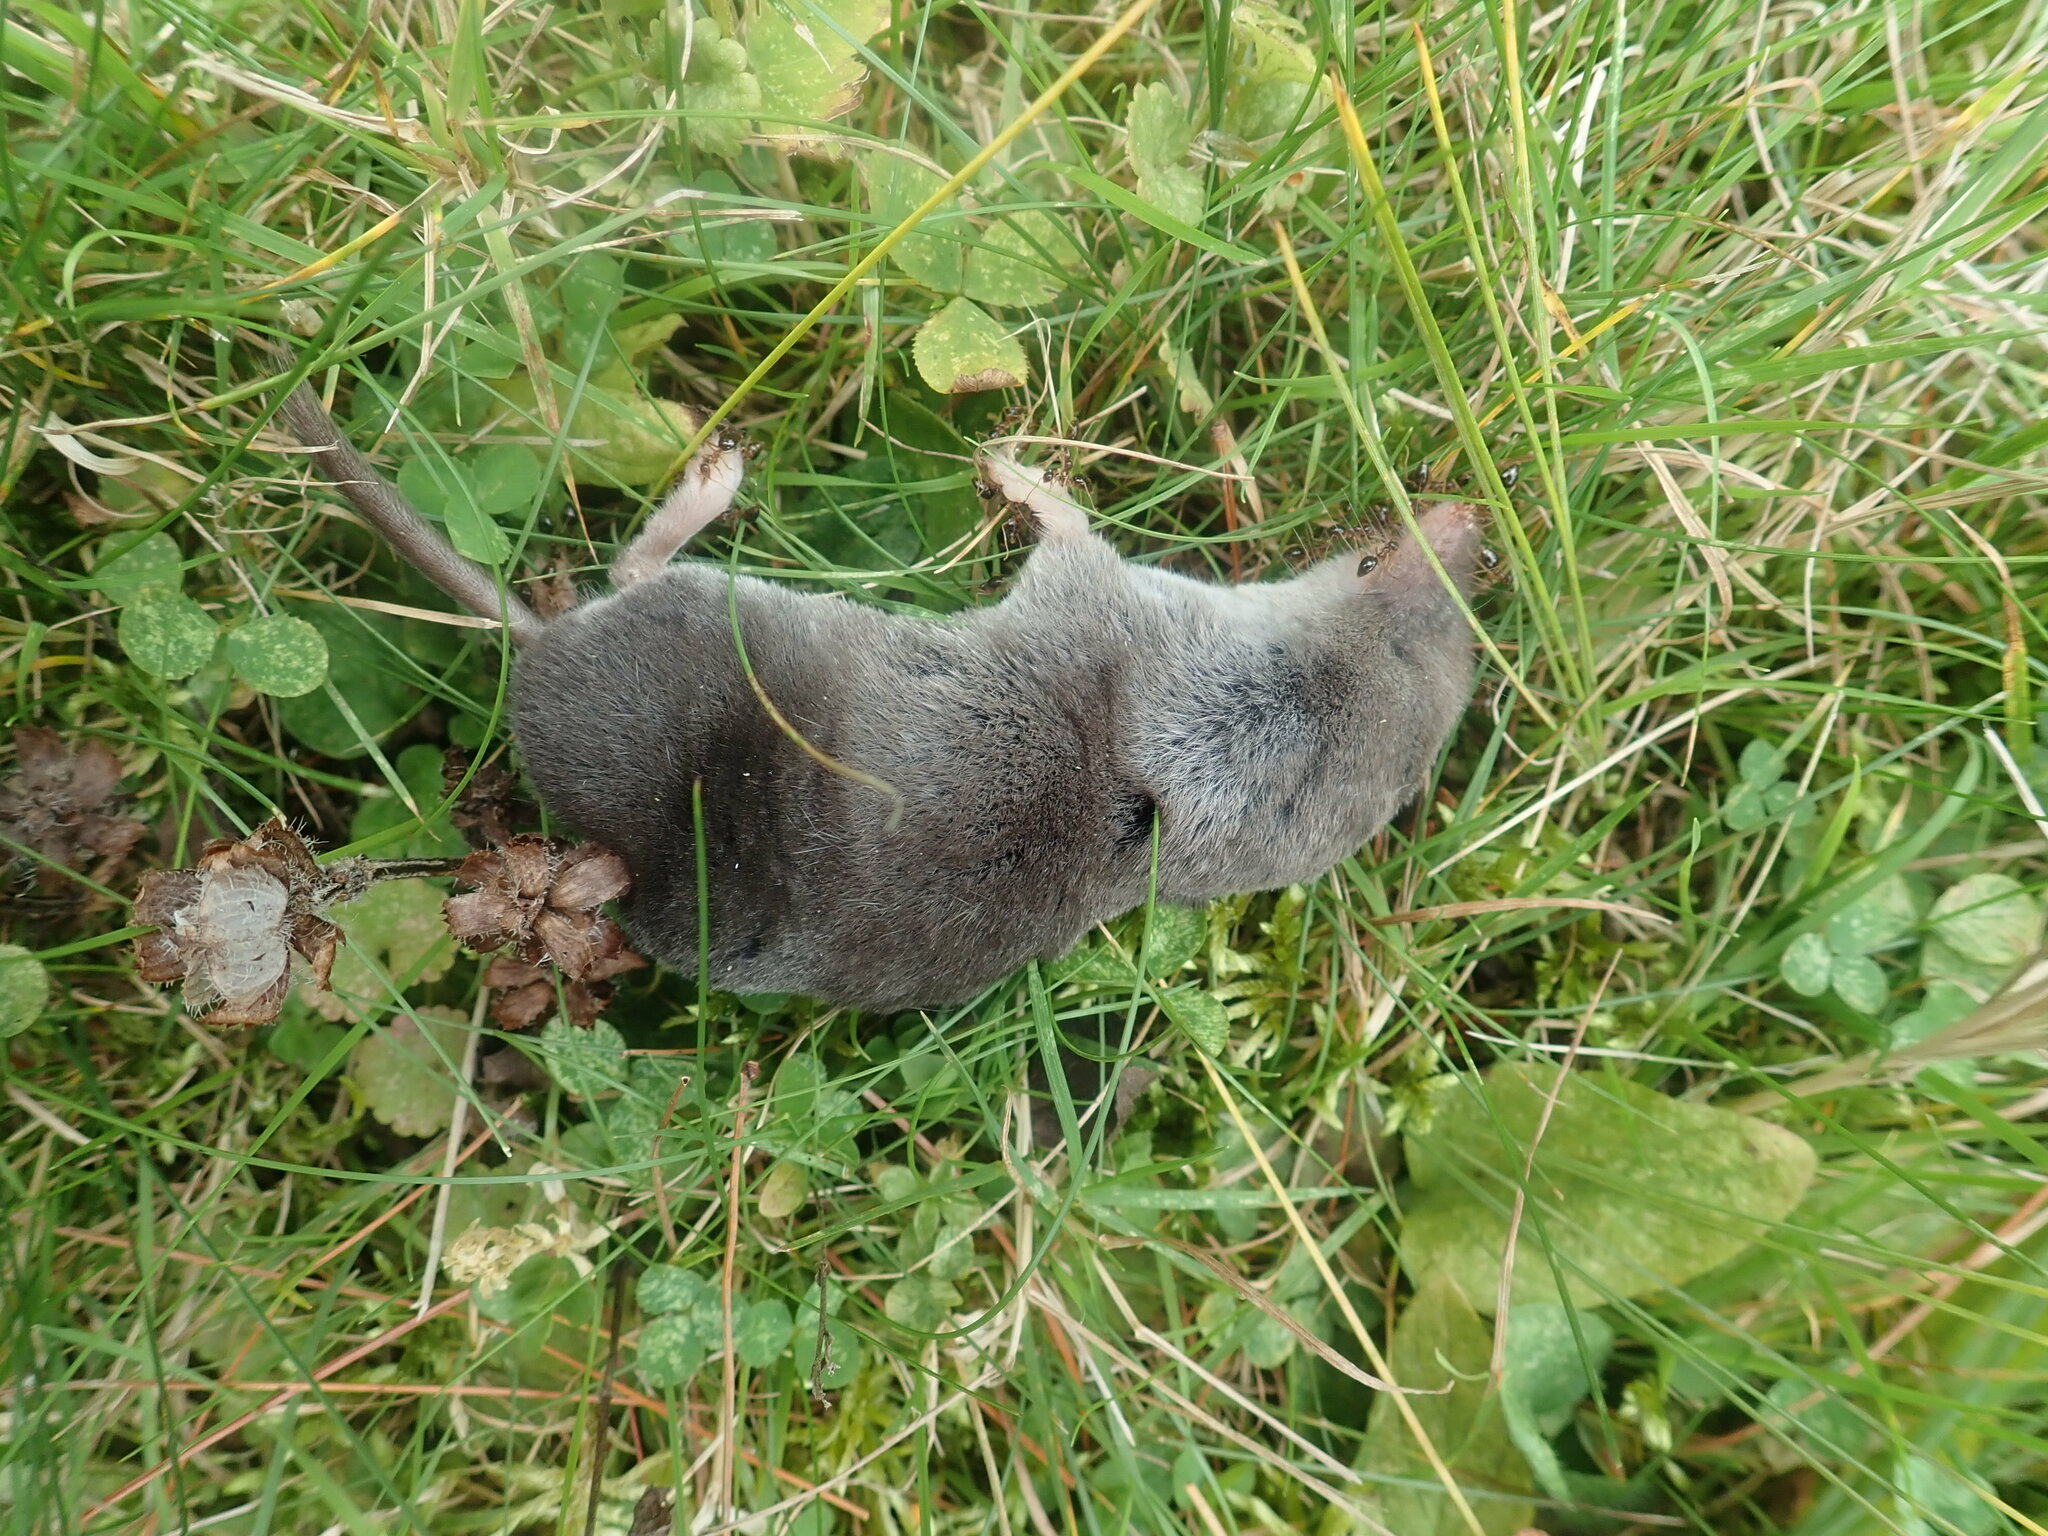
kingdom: Animalia
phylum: Chordata
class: Mammalia
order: Soricomorpha
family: Soricidae
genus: Blarina
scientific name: Blarina brevicauda
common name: Northern short-tailed shrew
